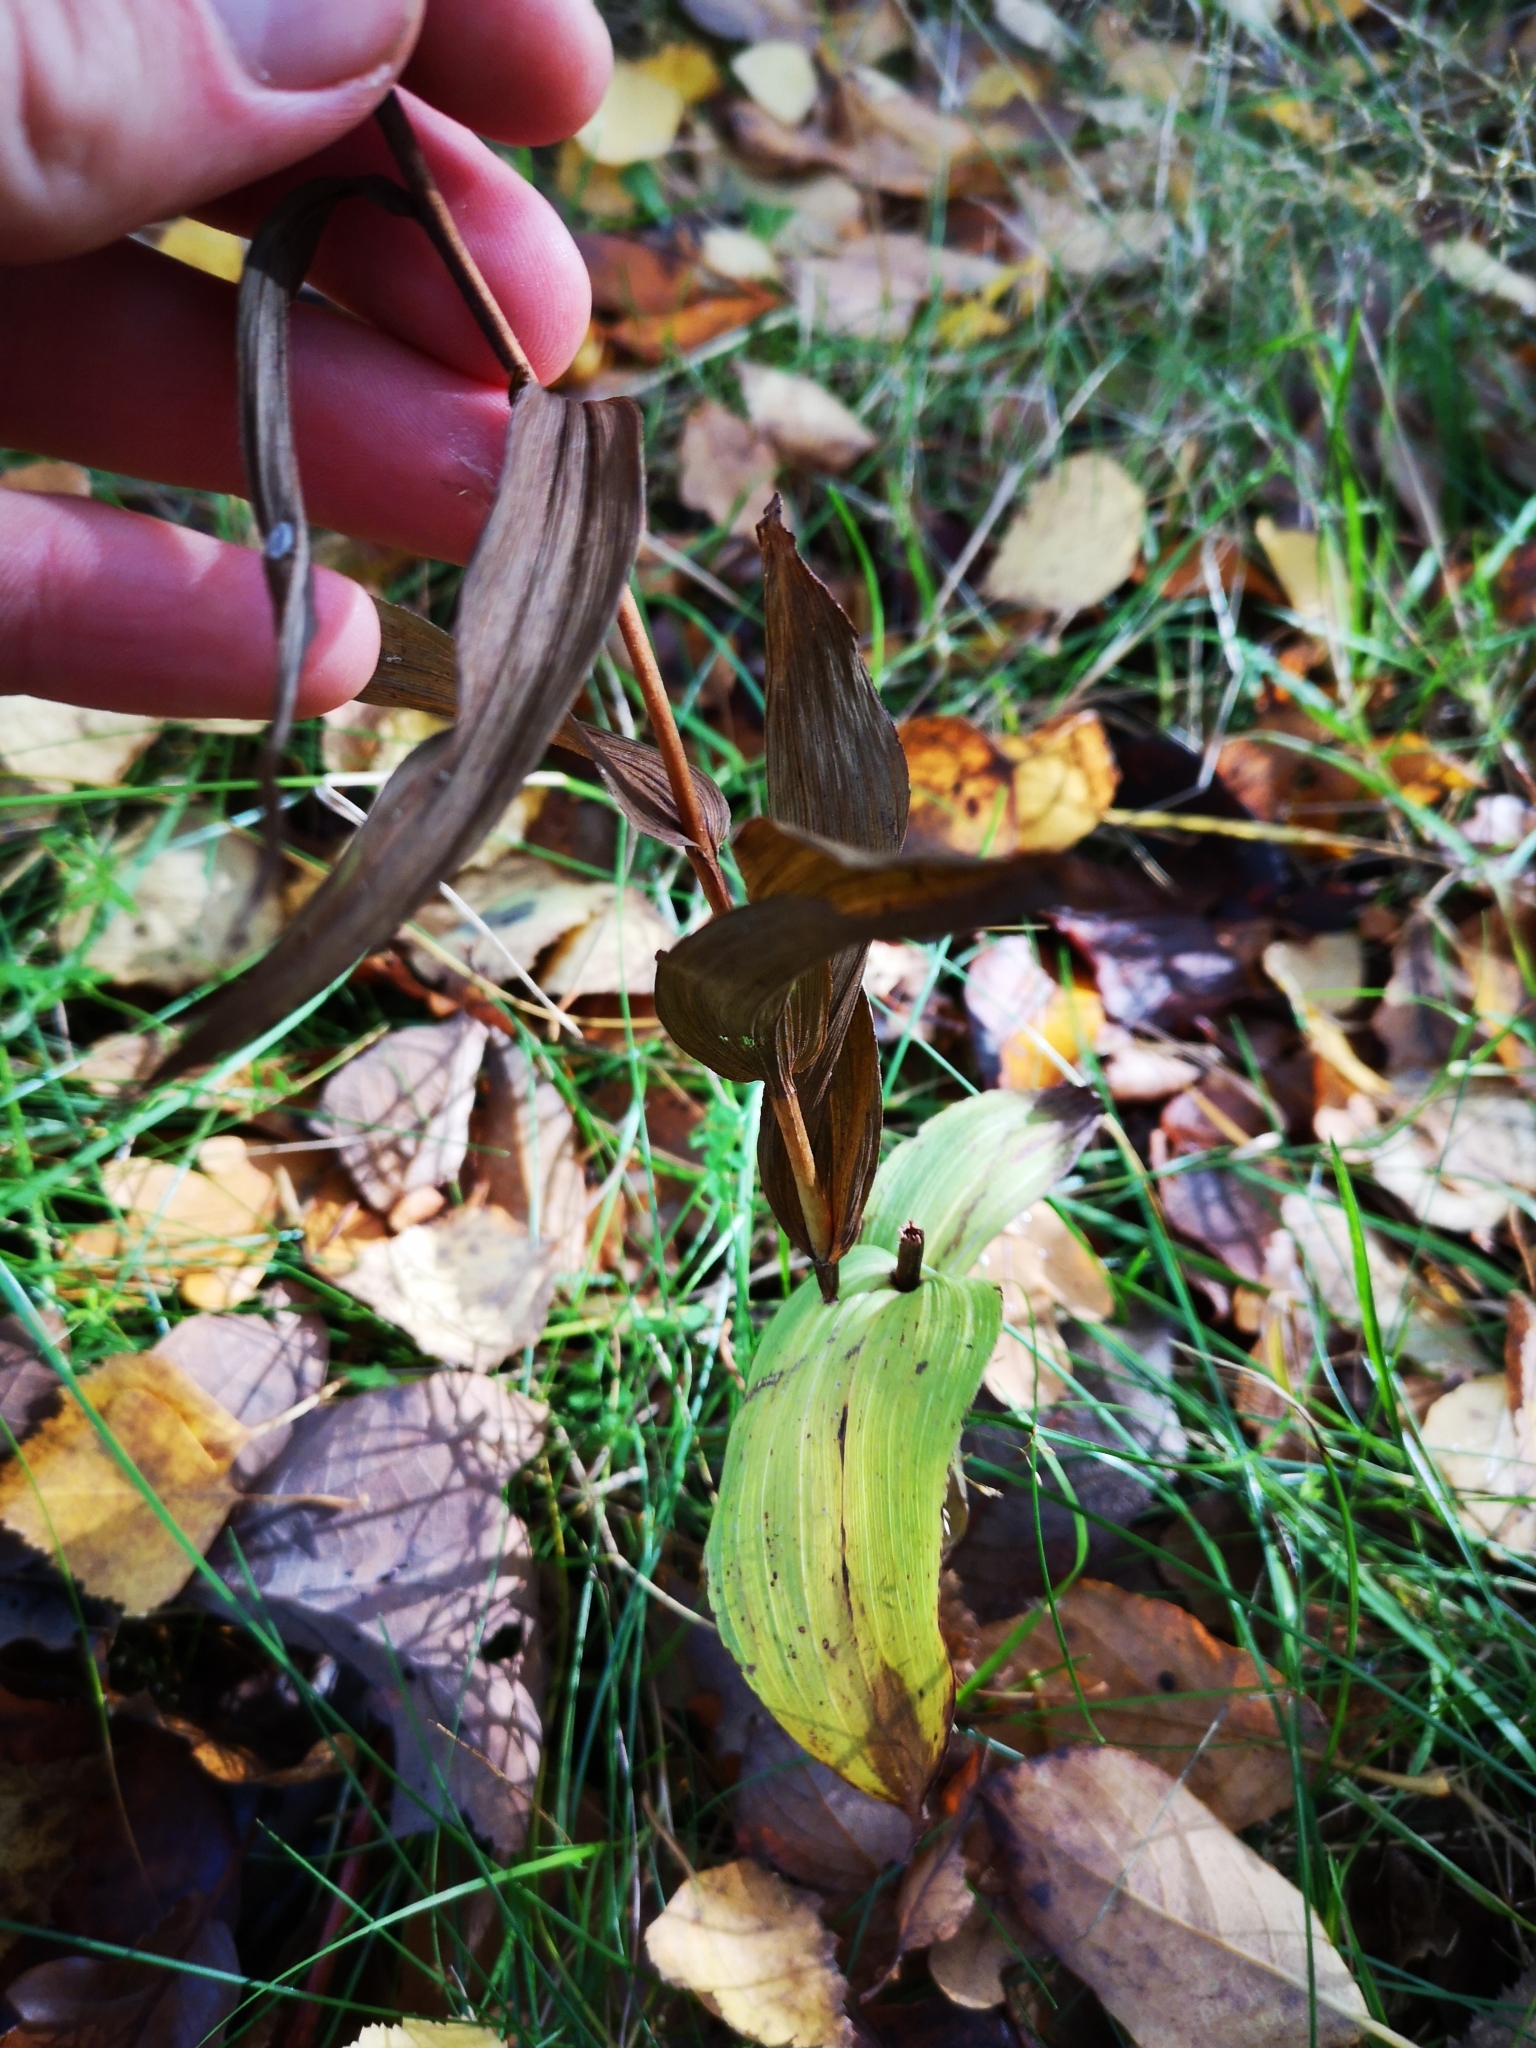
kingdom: Plantae
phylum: Tracheophyta
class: Liliopsida
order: Asparagales
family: Orchidaceae
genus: Epipactis
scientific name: Epipactis helleborine
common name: Broad-leaved helleborine
